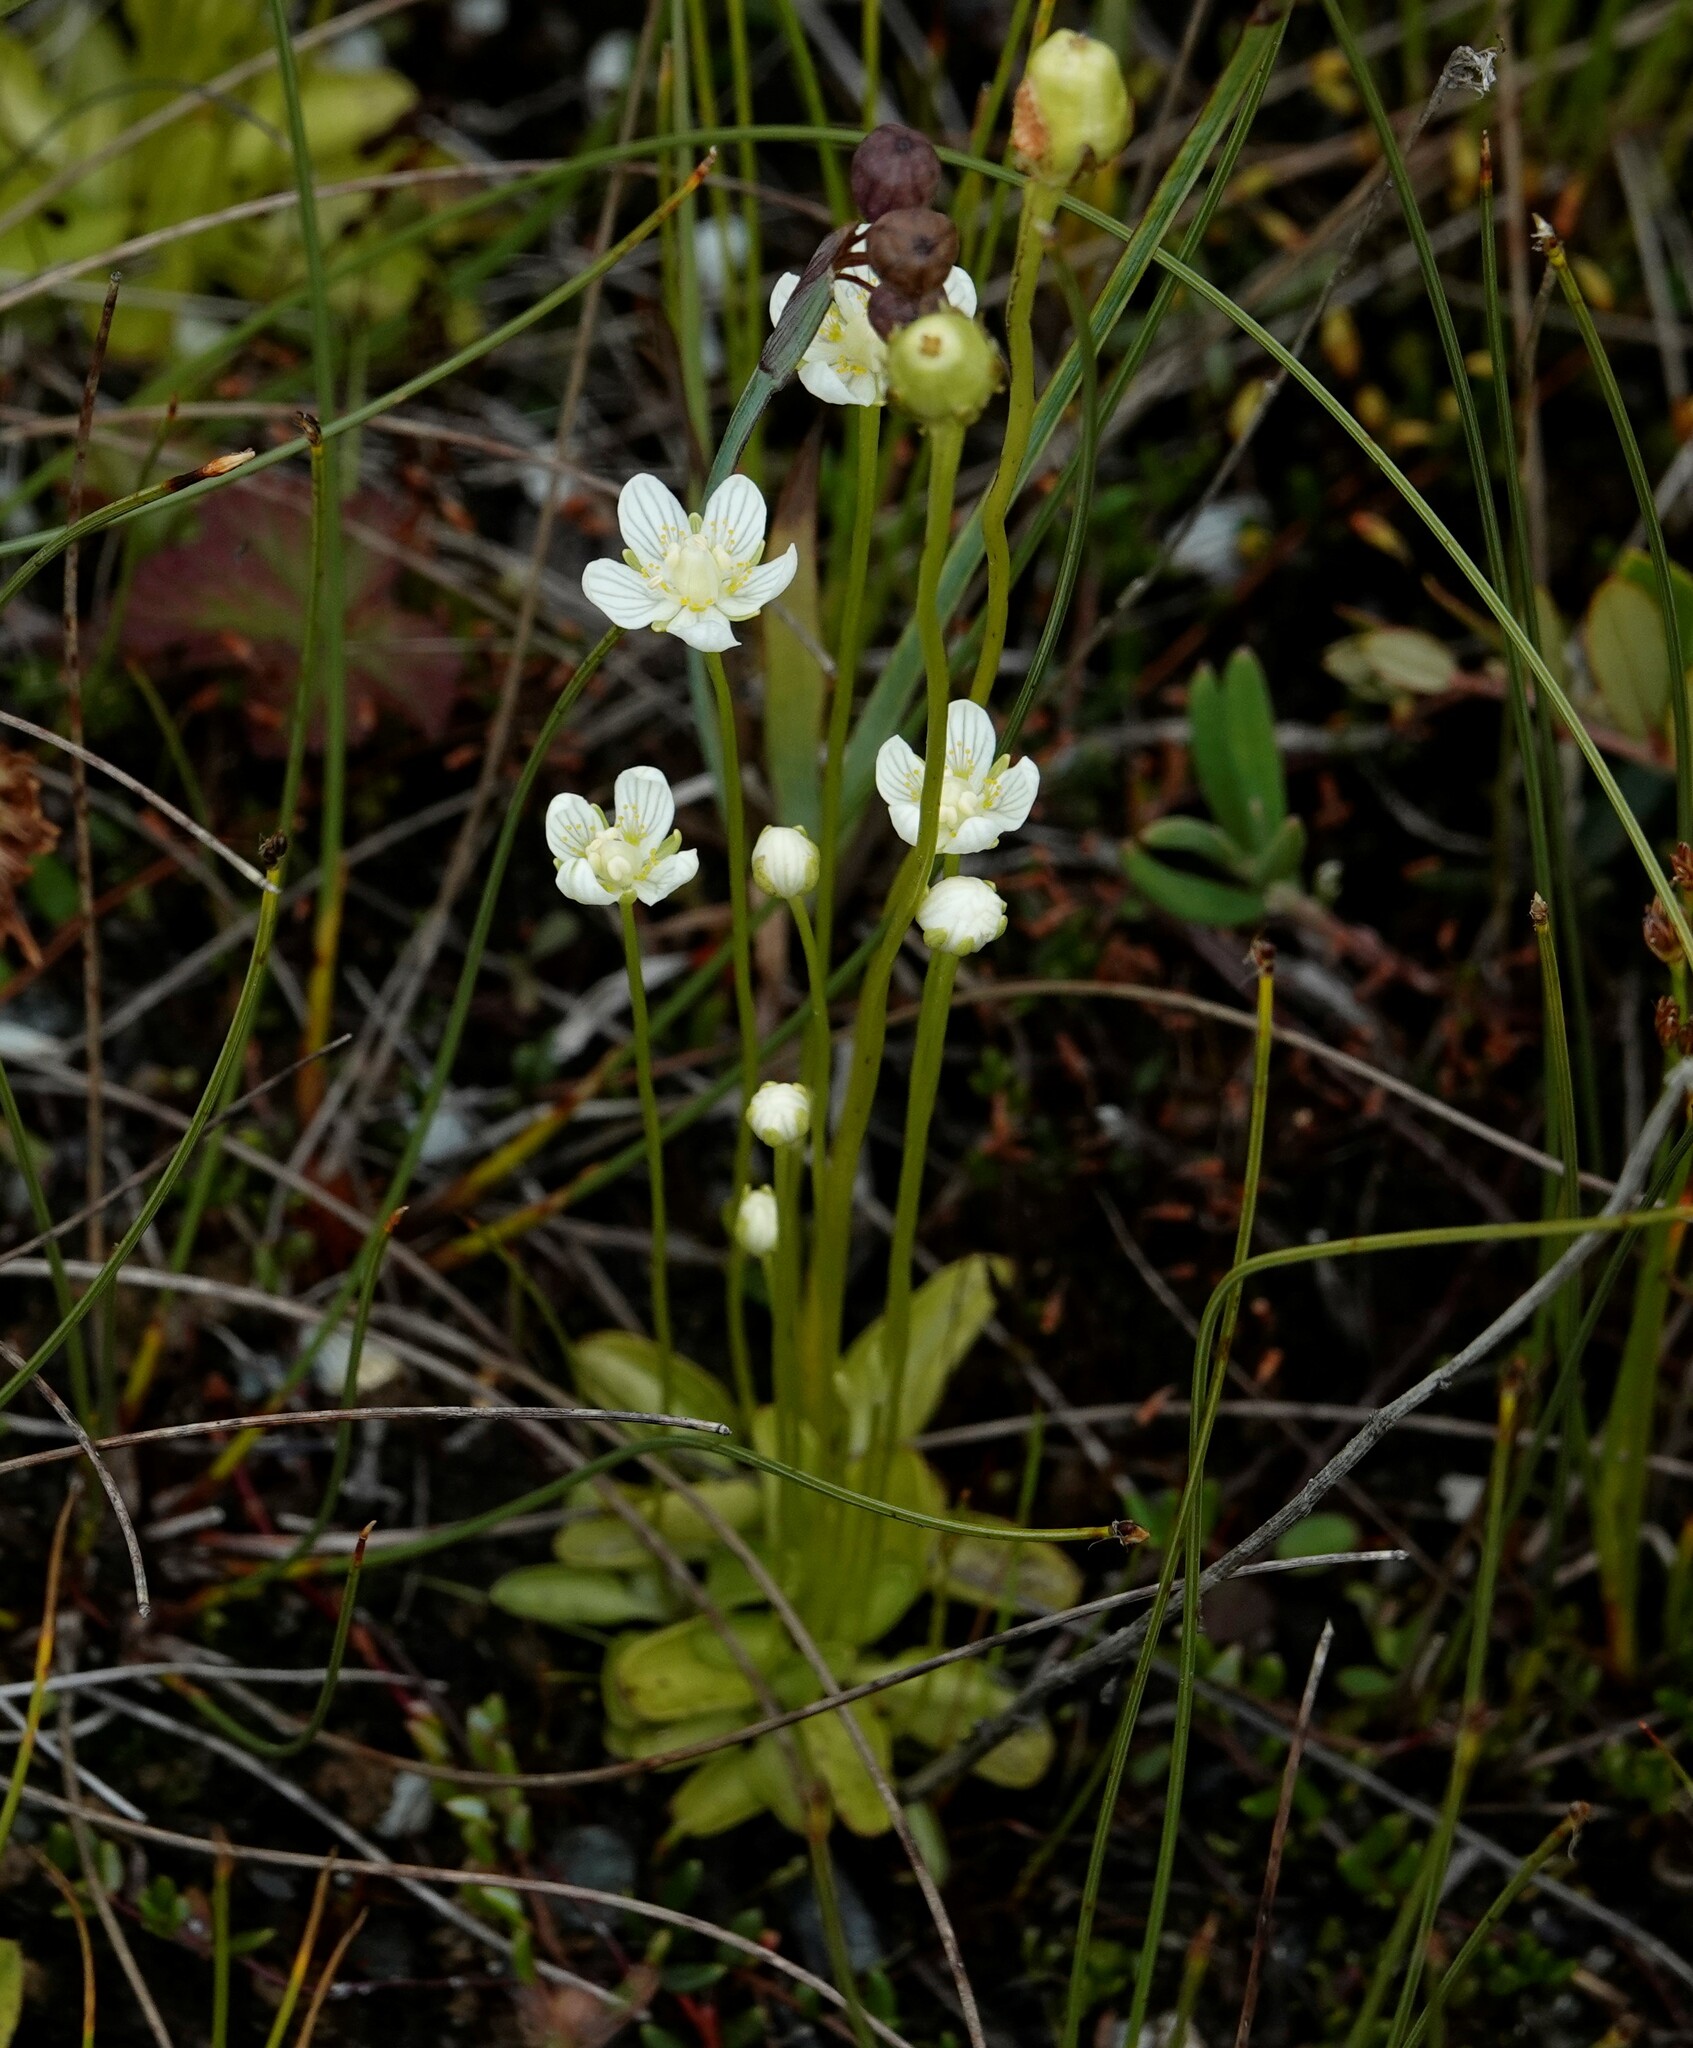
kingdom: Plantae
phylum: Tracheophyta
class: Magnoliopsida
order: Celastrales
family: Parnassiaceae
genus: Parnassia
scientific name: Parnassia palustris
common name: Grass-of-parnassus
